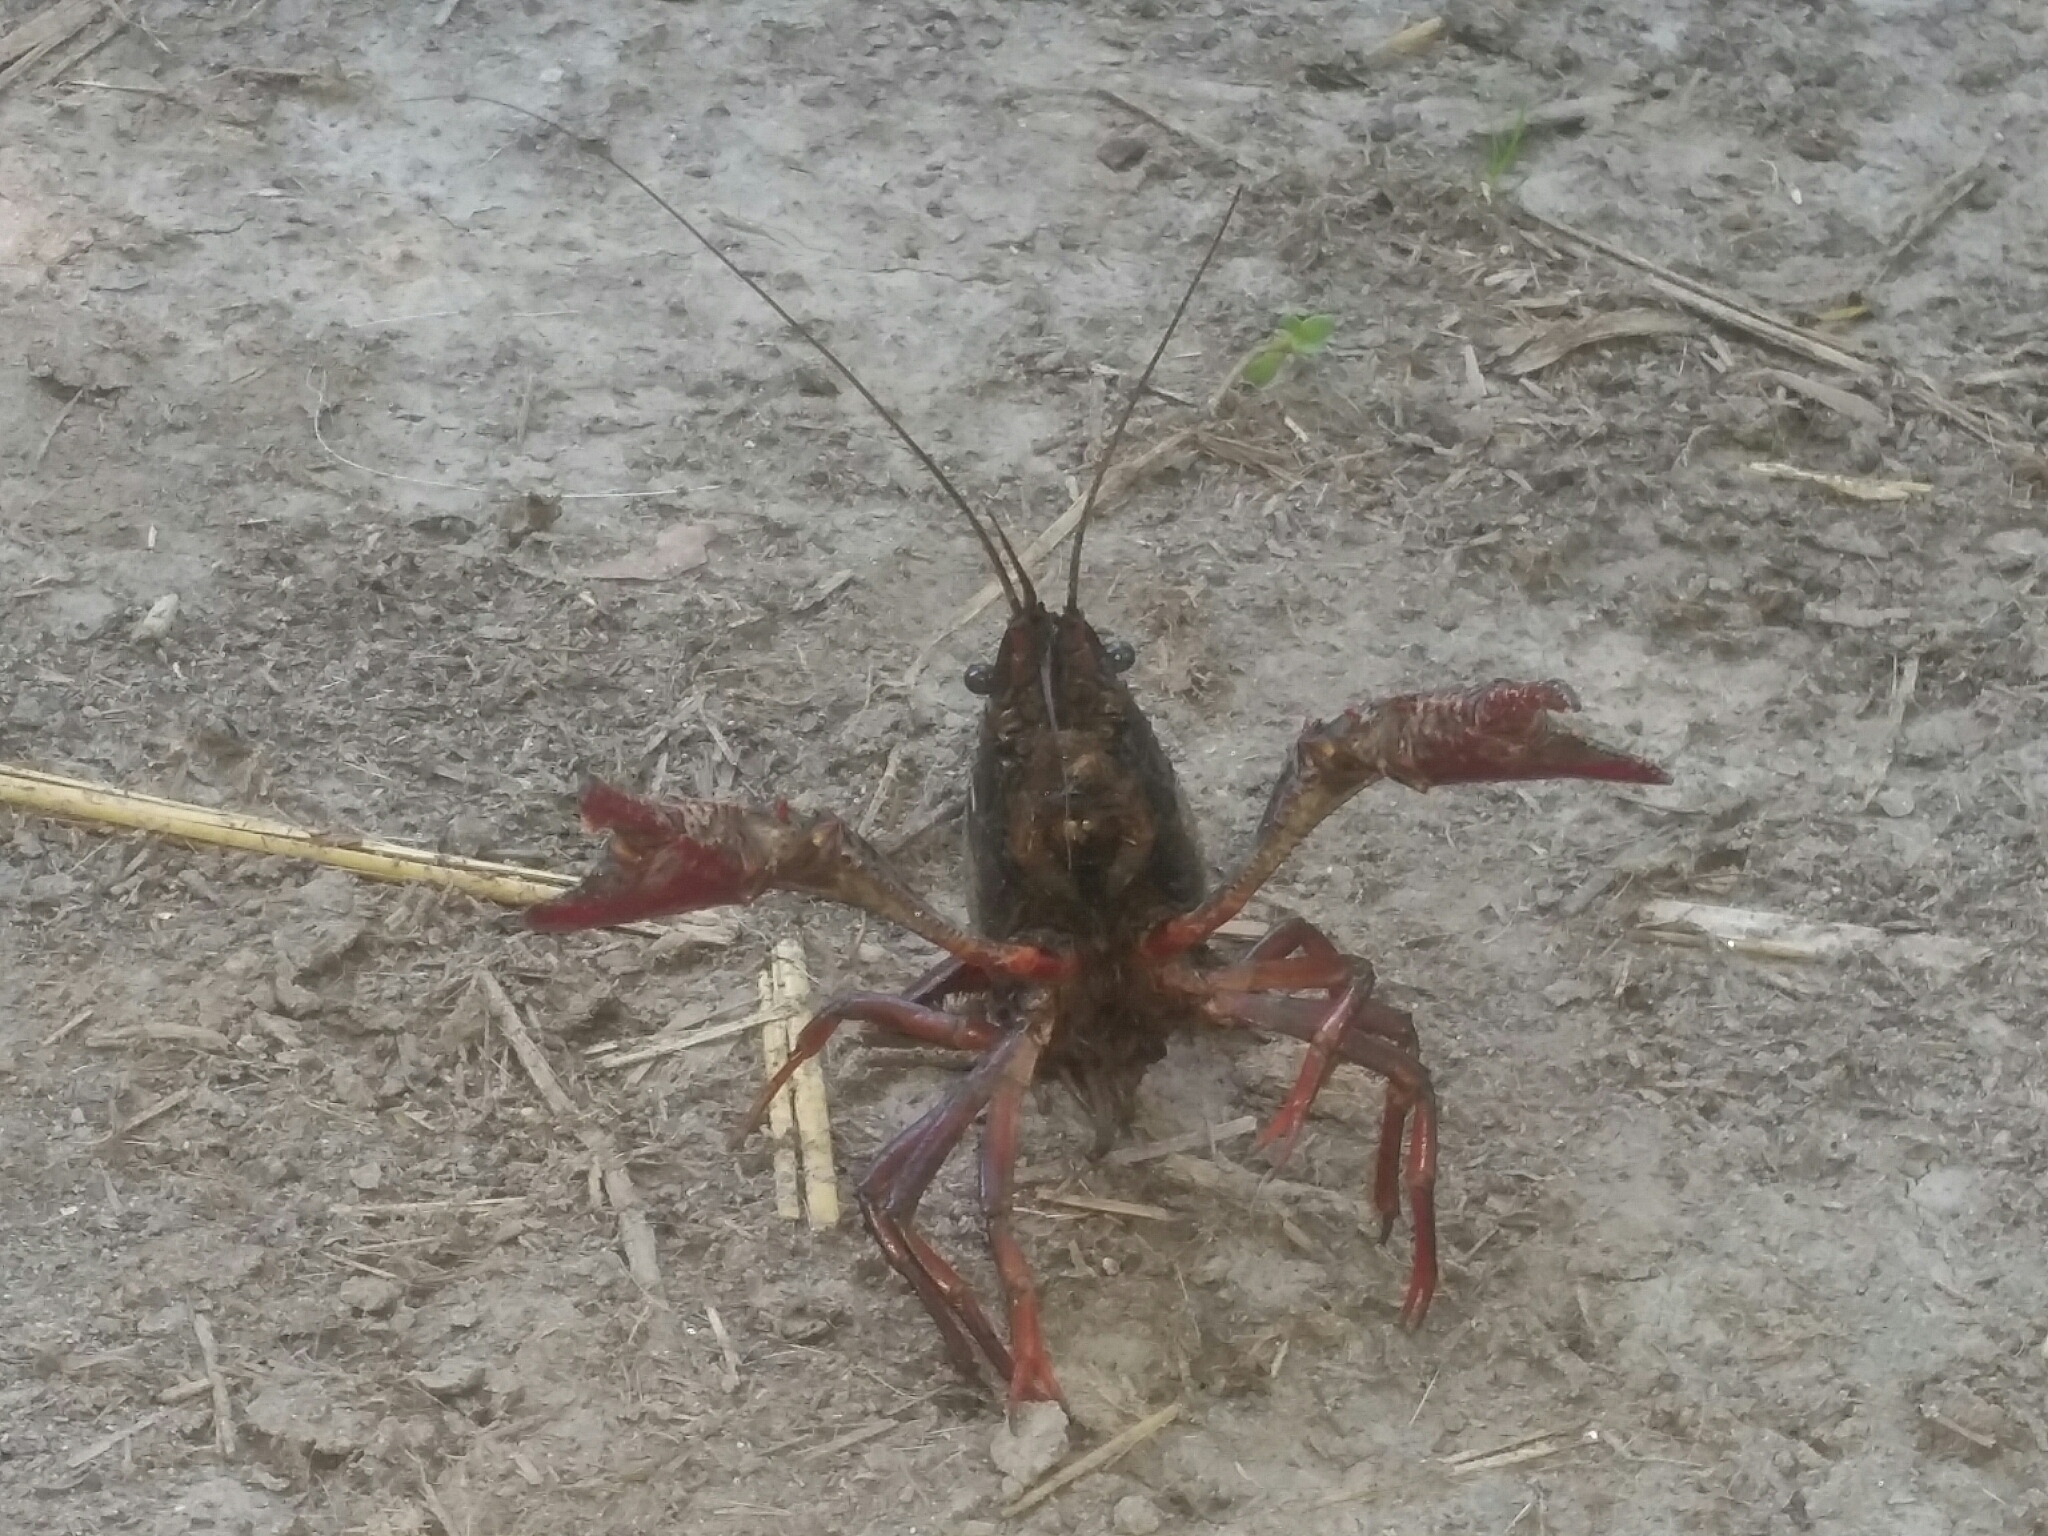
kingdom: Animalia
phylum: Arthropoda
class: Malacostraca
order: Decapoda
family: Cambaridae
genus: Procambarus
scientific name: Procambarus clarkii
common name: Red swamp crayfish
